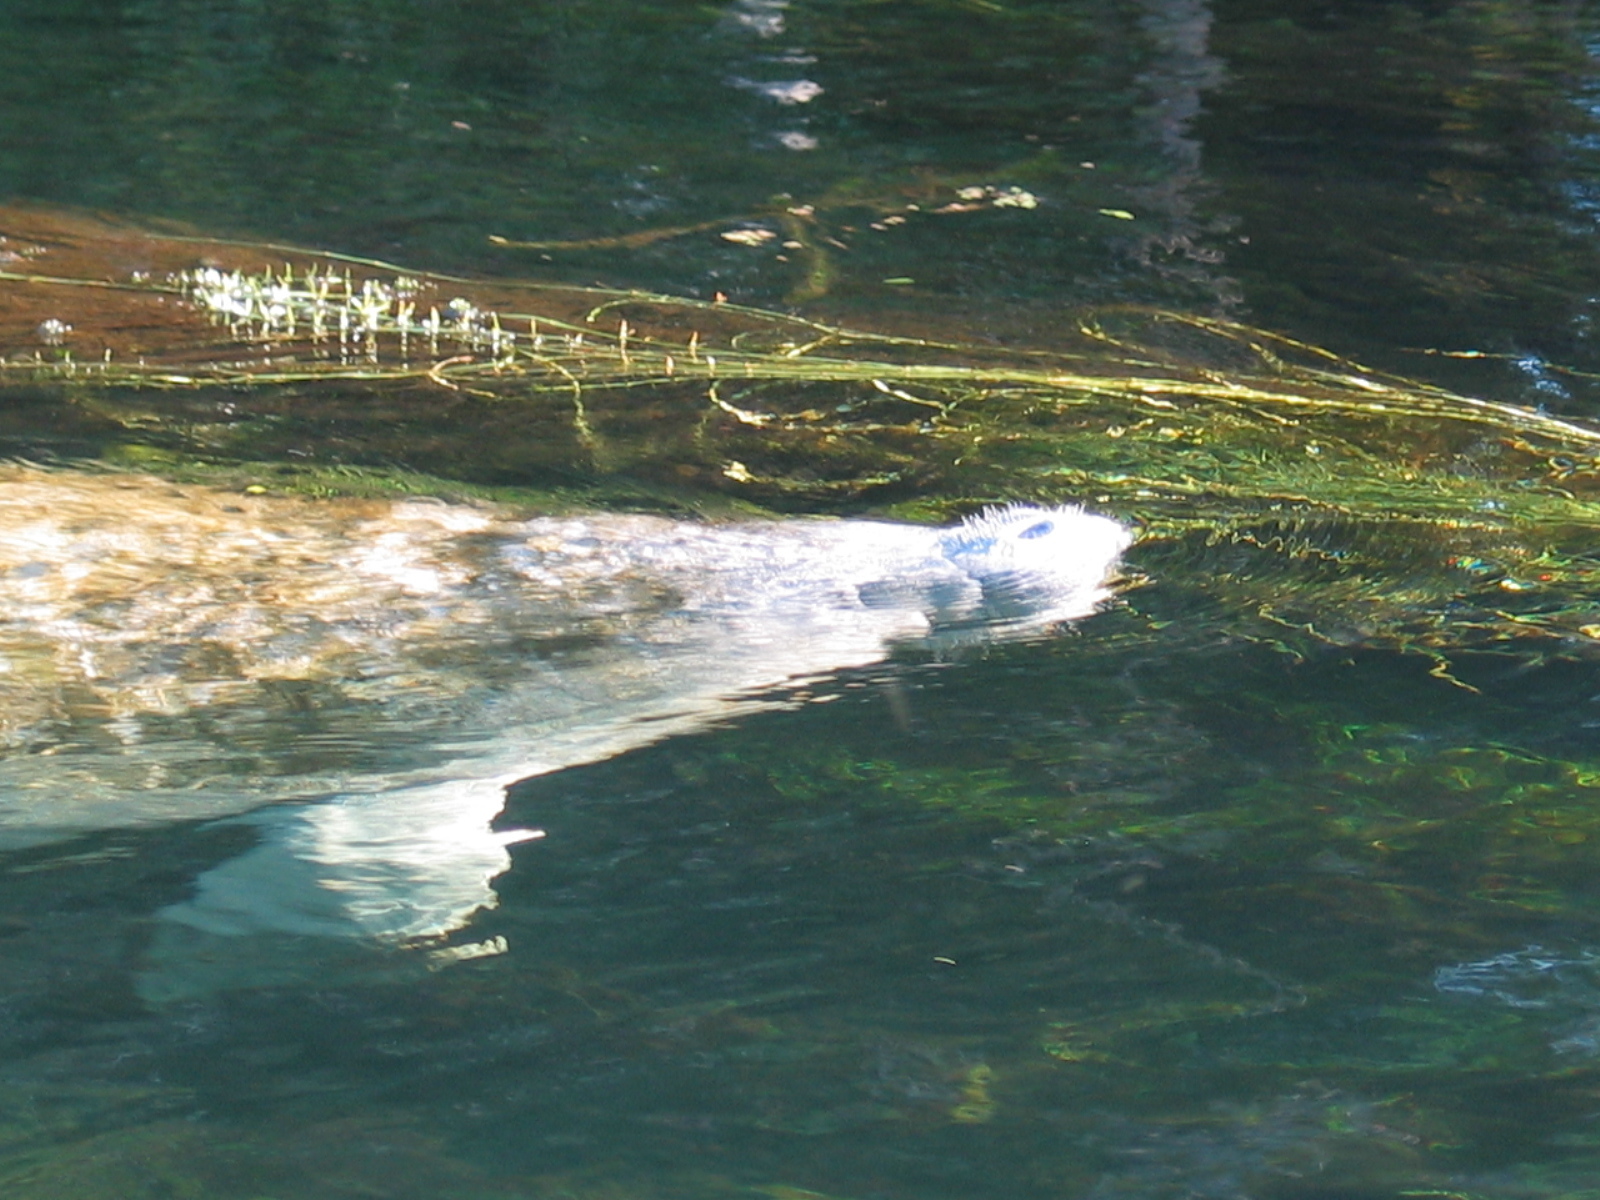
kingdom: Animalia
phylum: Chordata
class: Mammalia
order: Sirenia
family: Trichechidae
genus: Trichechus
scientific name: Trichechus manatus
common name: West indian manatee
